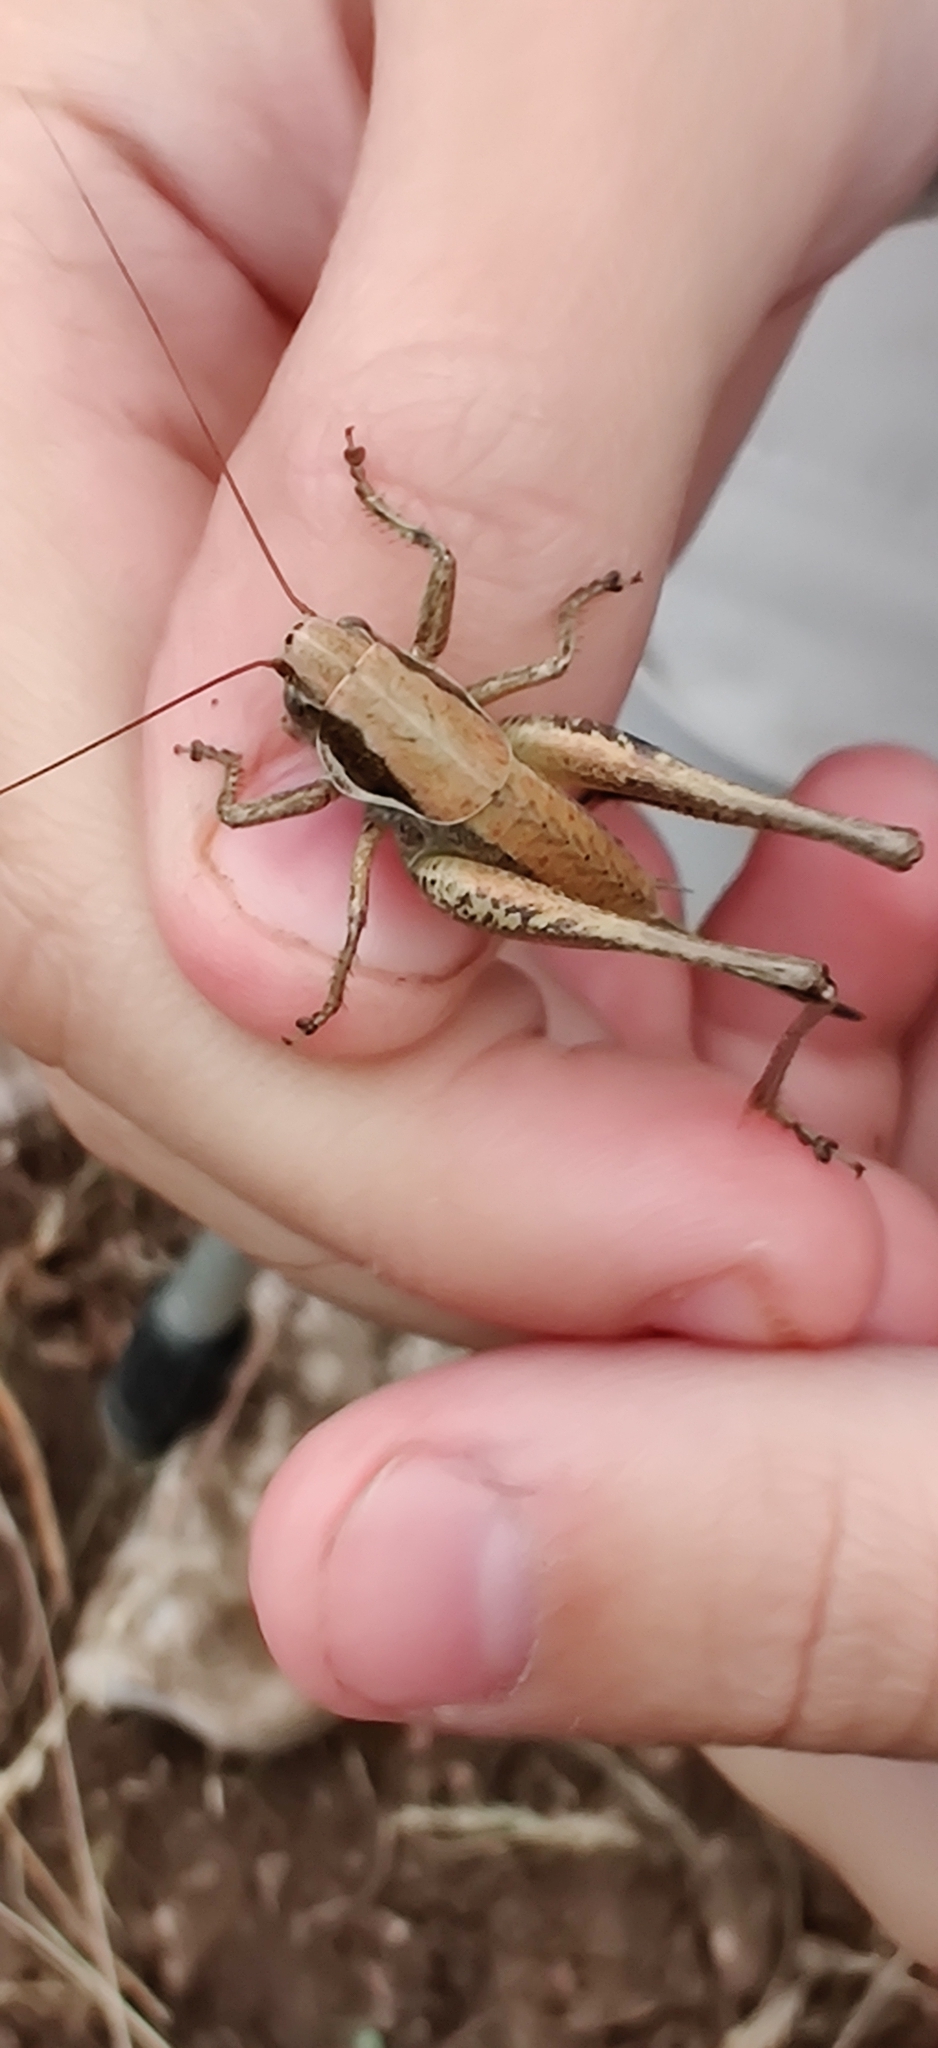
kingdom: Animalia
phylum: Arthropoda
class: Insecta
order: Orthoptera
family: Tettigoniidae
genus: Pholidoptera
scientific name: Pholidoptera fallax
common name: Fischer's bush-cricket
